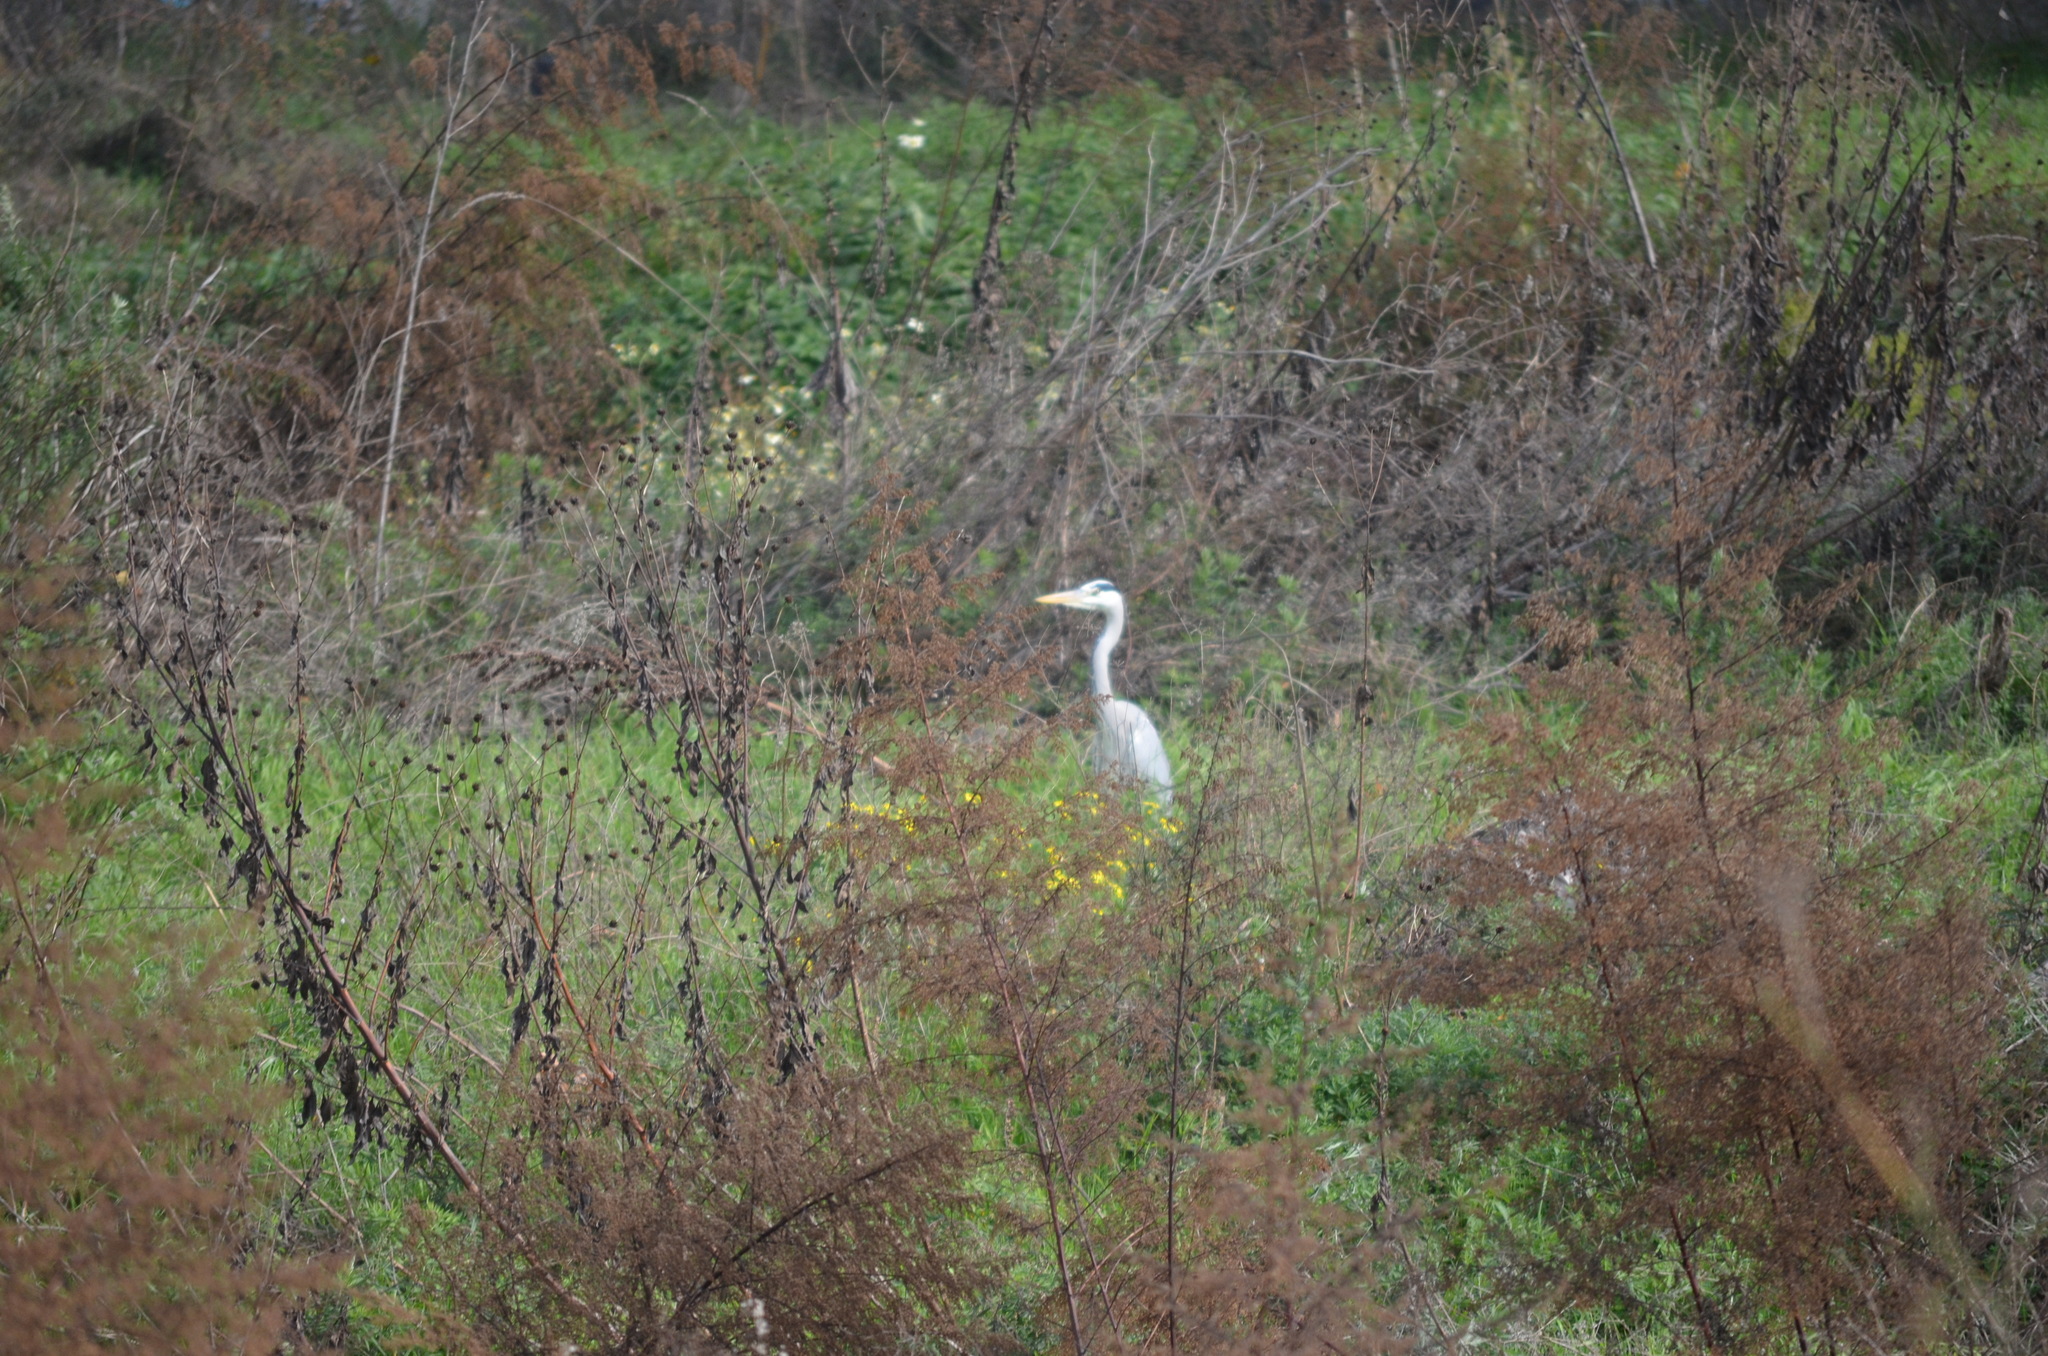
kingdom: Animalia
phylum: Chordata
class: Aves
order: Pelecaniformes
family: Ardeidae
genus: Ardea
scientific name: Ardea cinerea
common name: Grey heron
